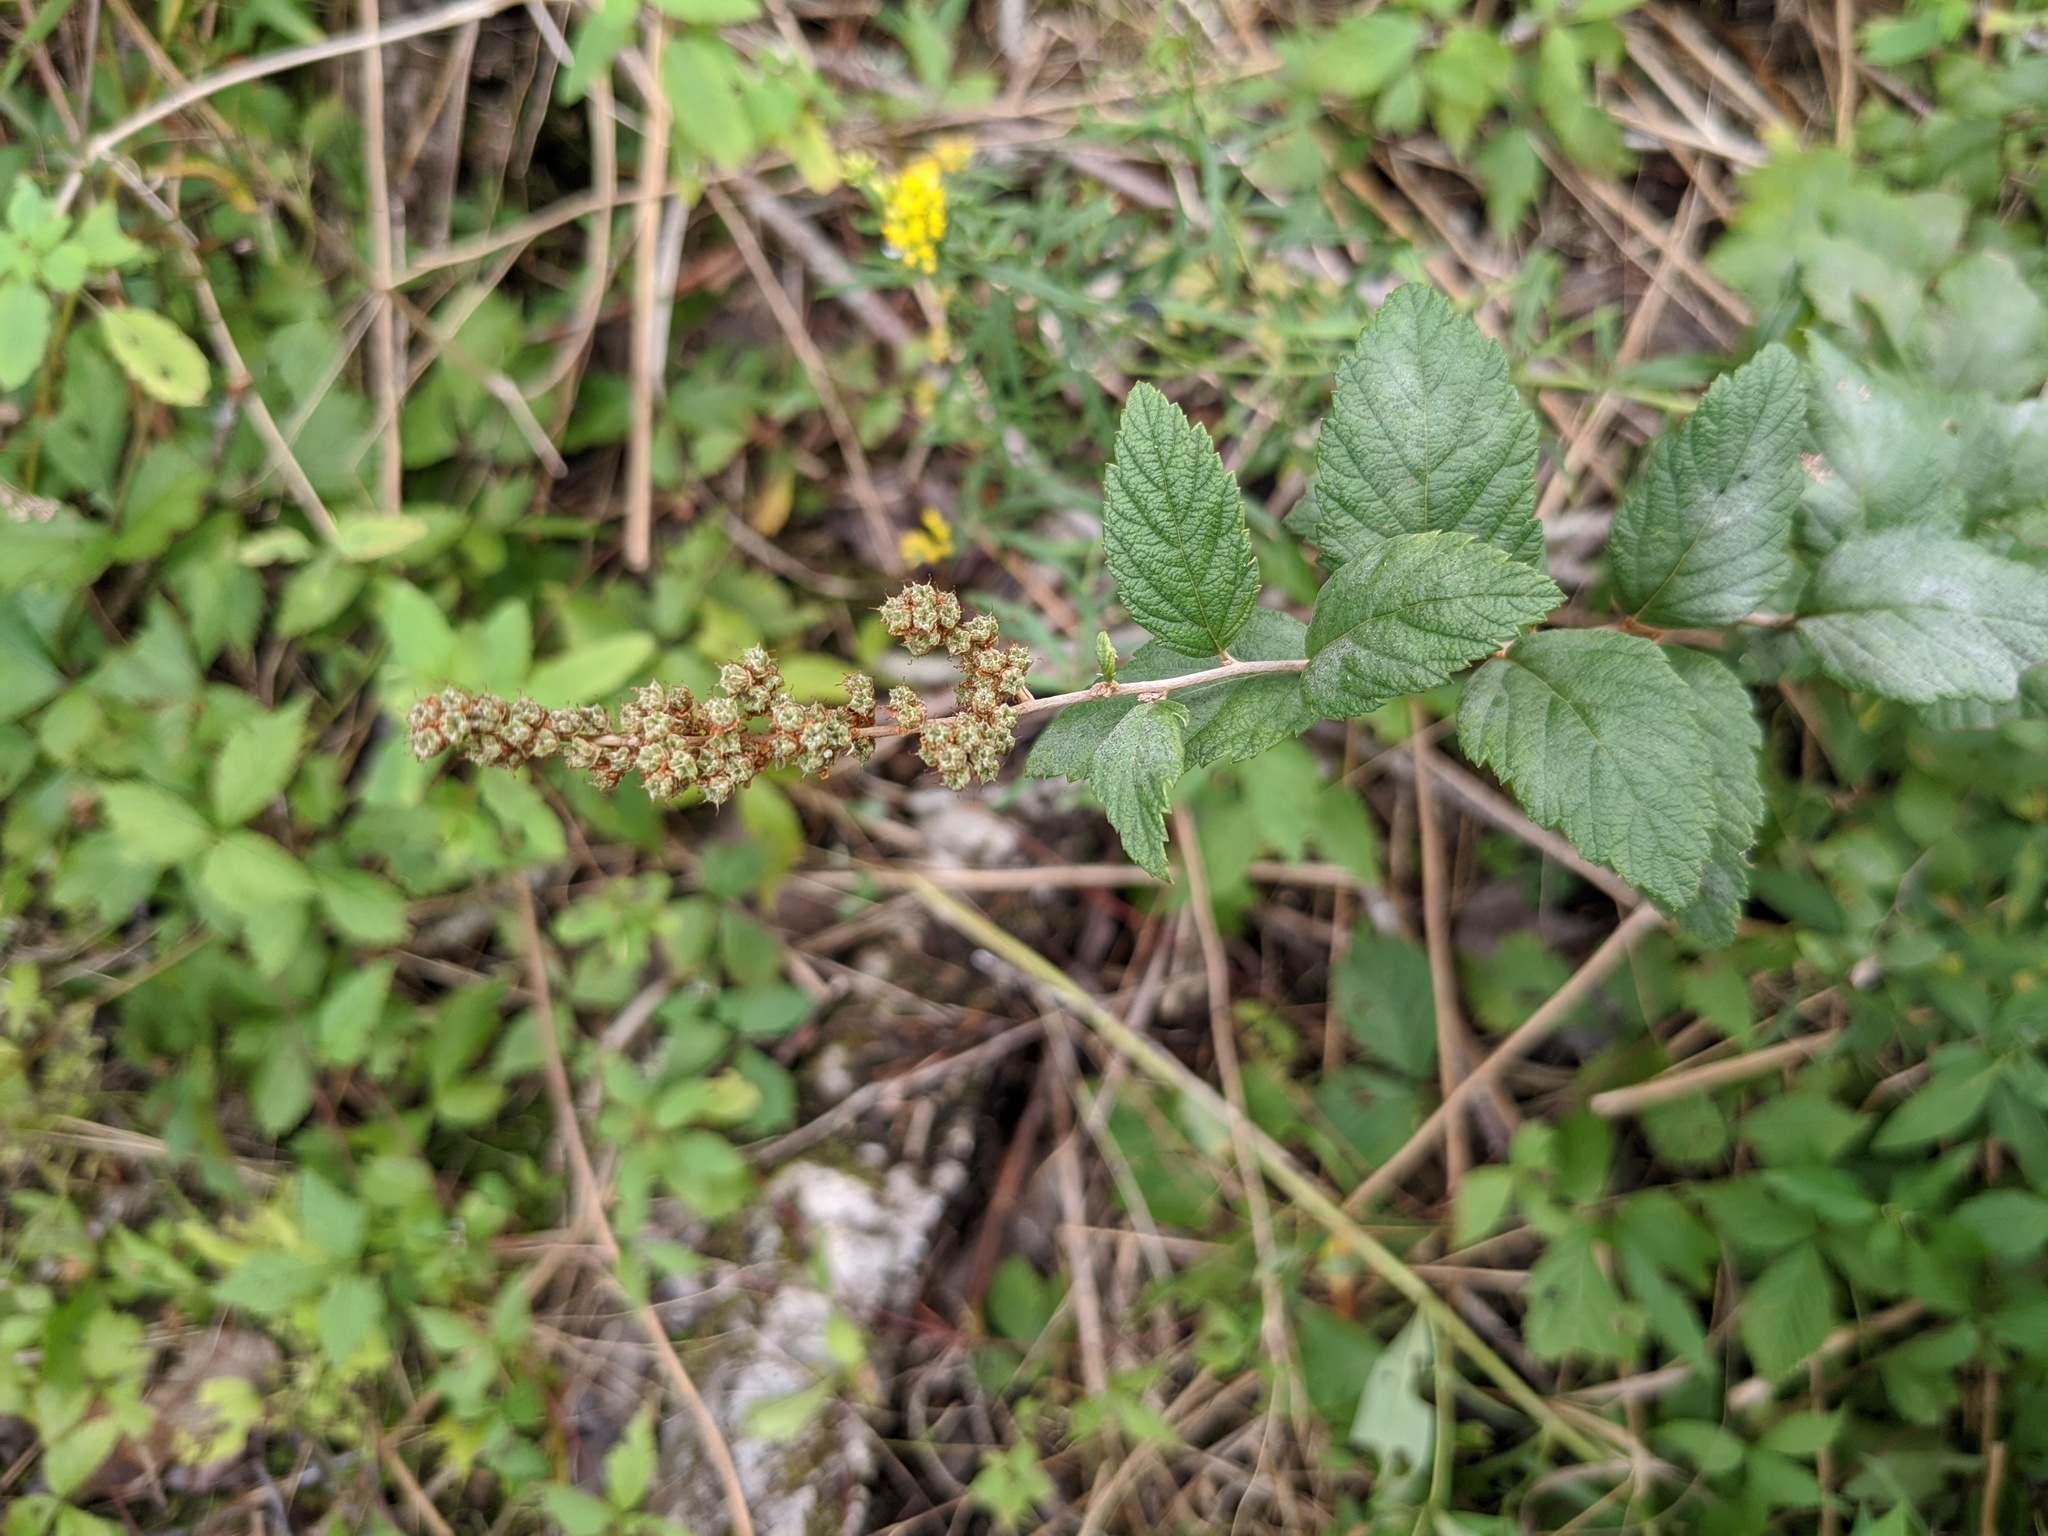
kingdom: Plantae
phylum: Tracheophyta
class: Magnoliopsida
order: Rosales
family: Rosaceae
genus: Spiraea
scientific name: Spiraea tomentosa
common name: Hardhack
